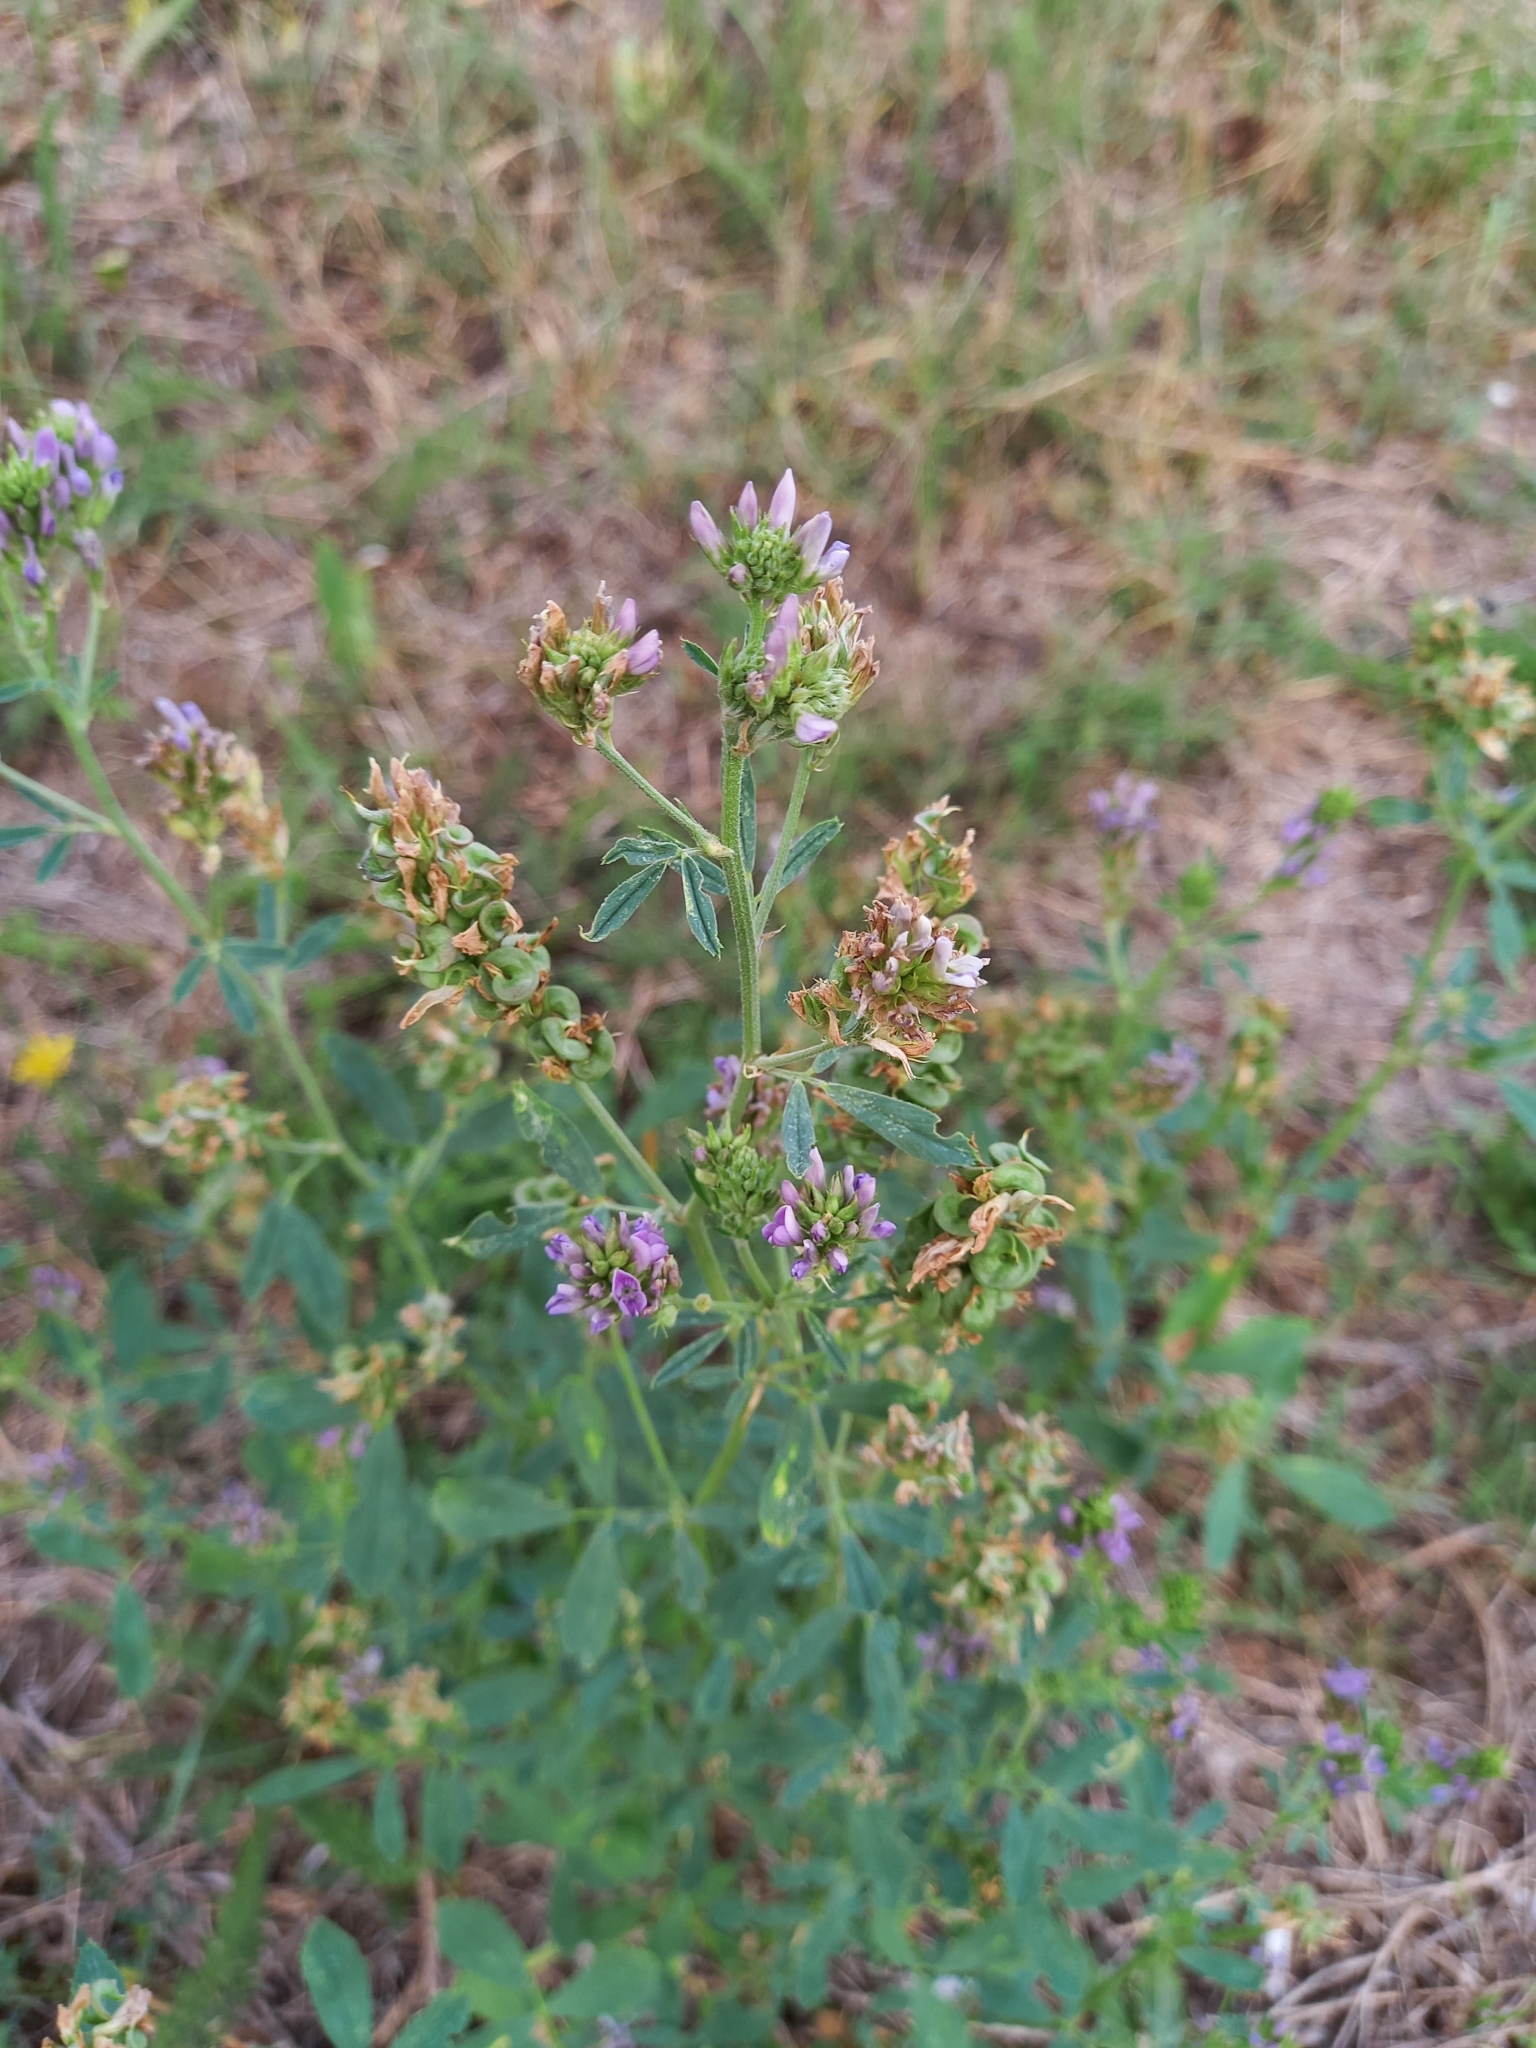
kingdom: Plantae
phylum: Tracheophyta
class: Magnoliopsida
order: Fabales
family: Fabaceae
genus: Medicago
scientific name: Medicago sativa
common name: Alfalfa
